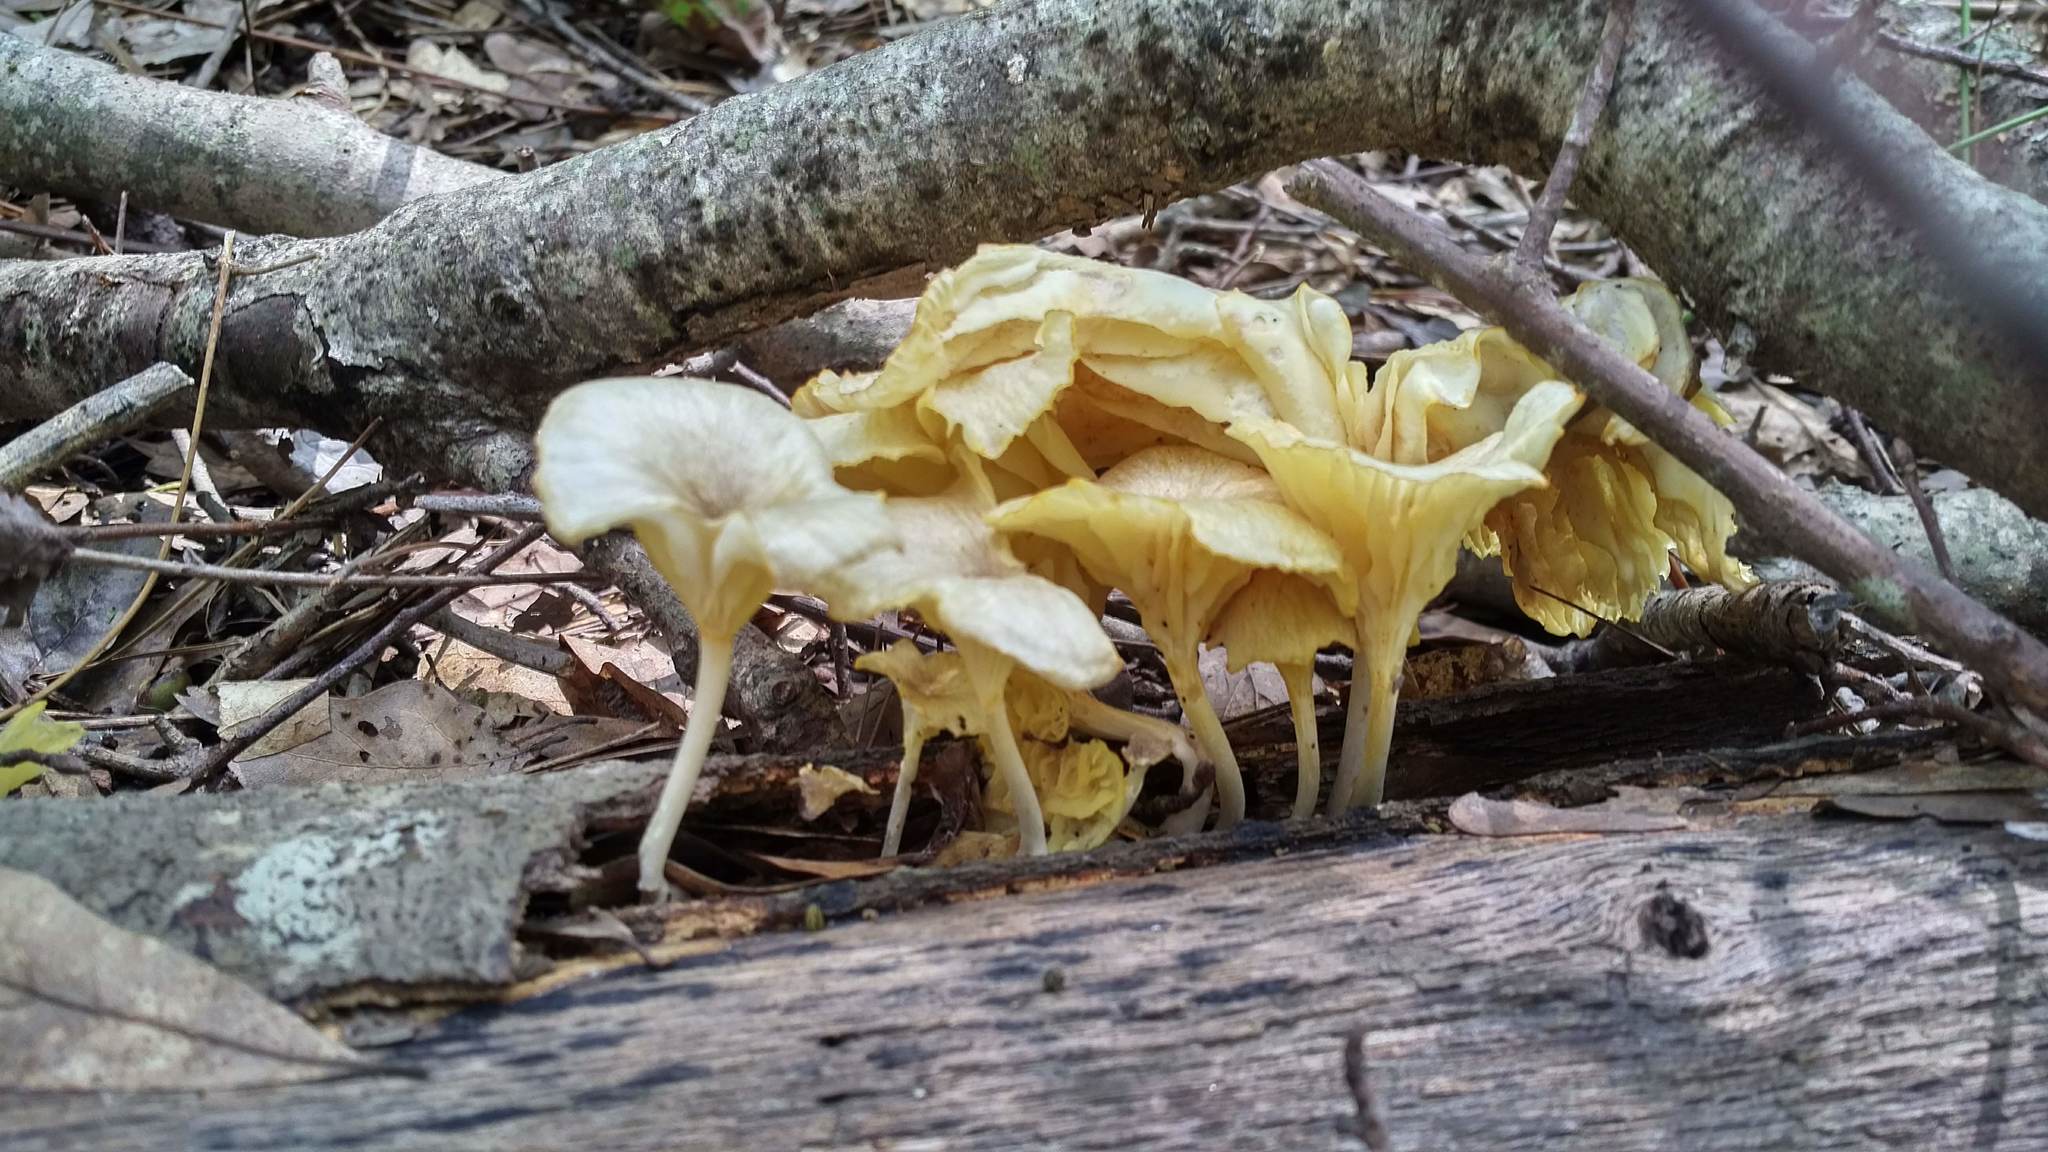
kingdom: Fungi
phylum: Basidiomycota
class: Agaricomycetes
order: Agaricales
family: Marasmiaceae
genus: Gerronema
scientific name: Gerronema strombodes
